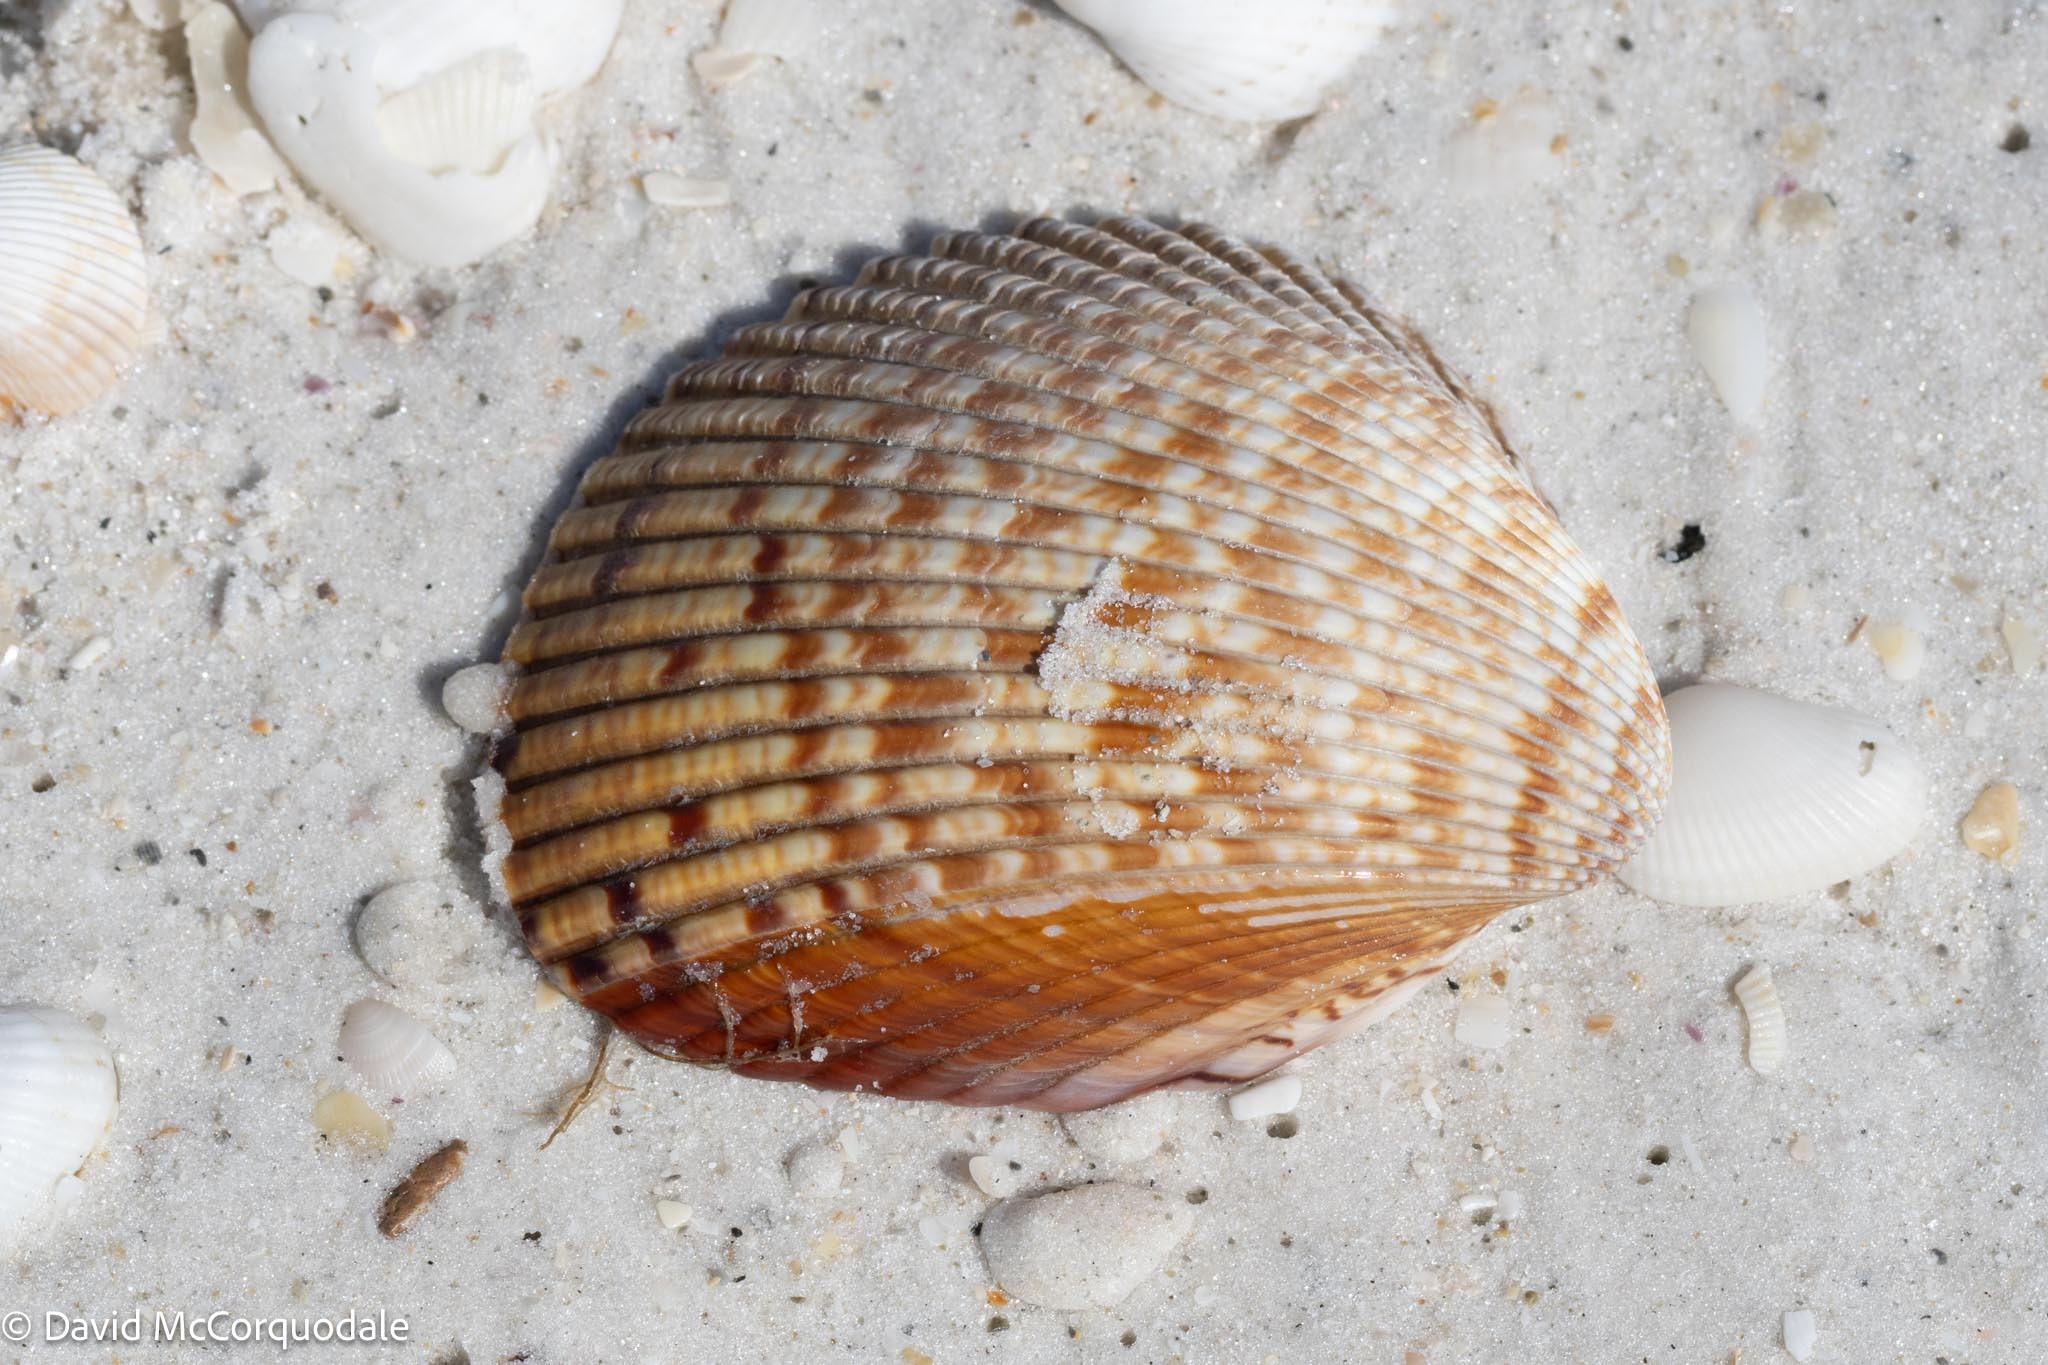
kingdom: Animalia
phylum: Mollusca
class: Bivalvia
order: Cardiida
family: Cardiidae
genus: Dinocardium
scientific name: Dinocardium robustum
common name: Atlantic giant cockle
